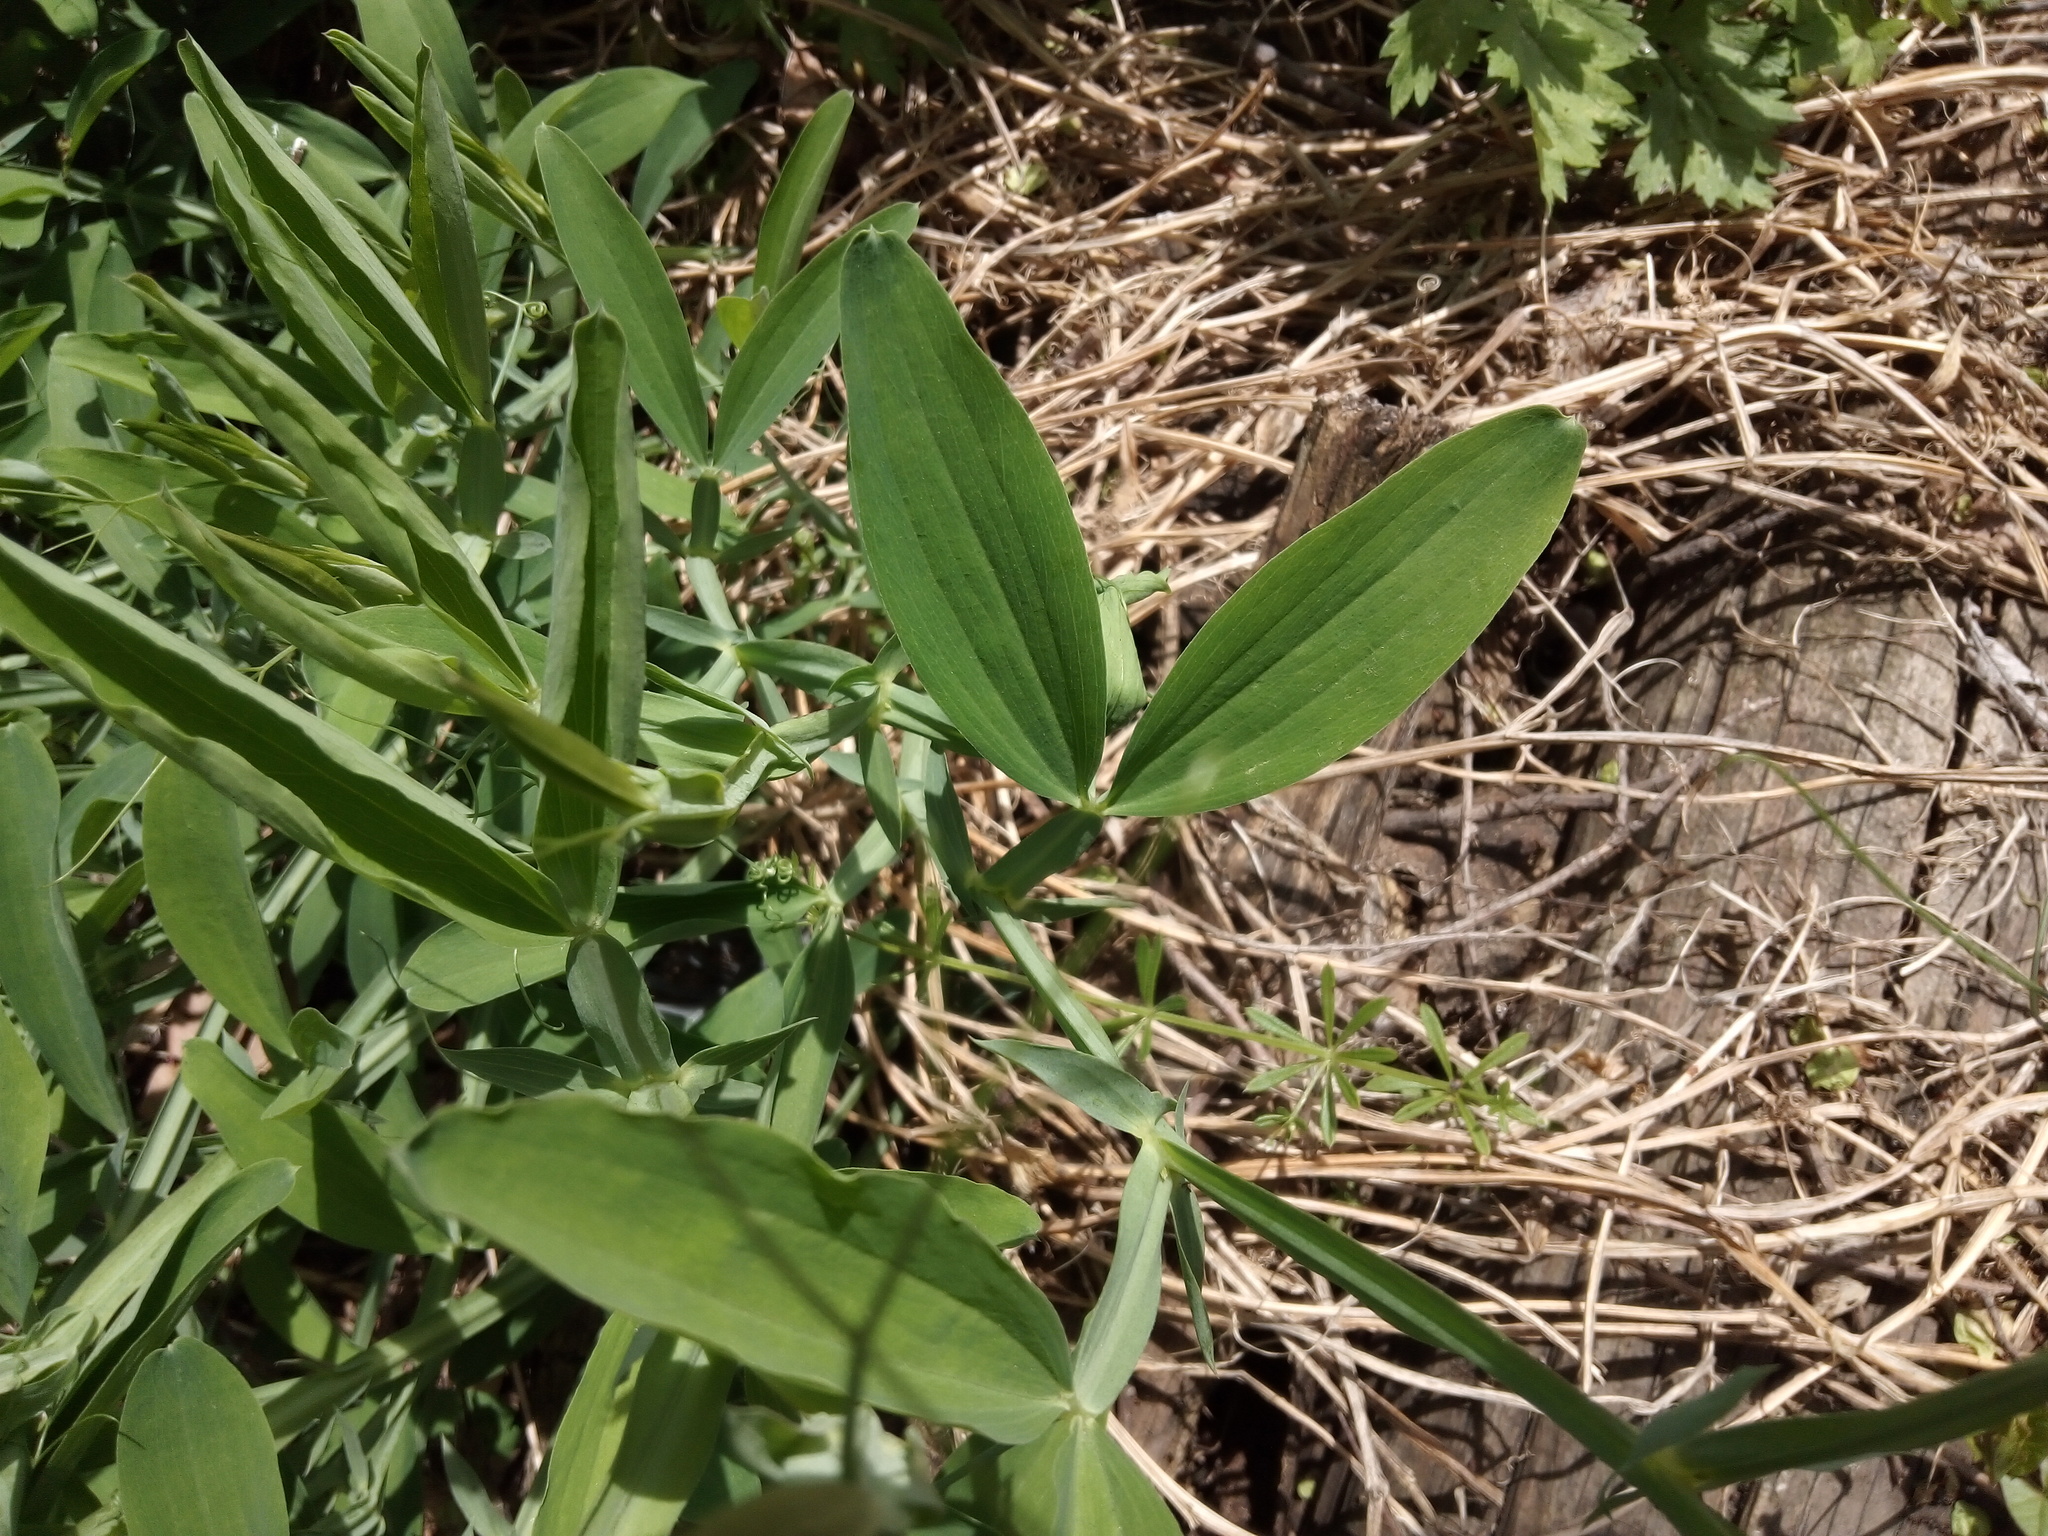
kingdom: Plantae
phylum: Tracheophyta
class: Magnoliopsida
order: Fabales
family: Fabaceae
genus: Lathyrus
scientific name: Lathyrus latifolius
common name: Perennial pea
